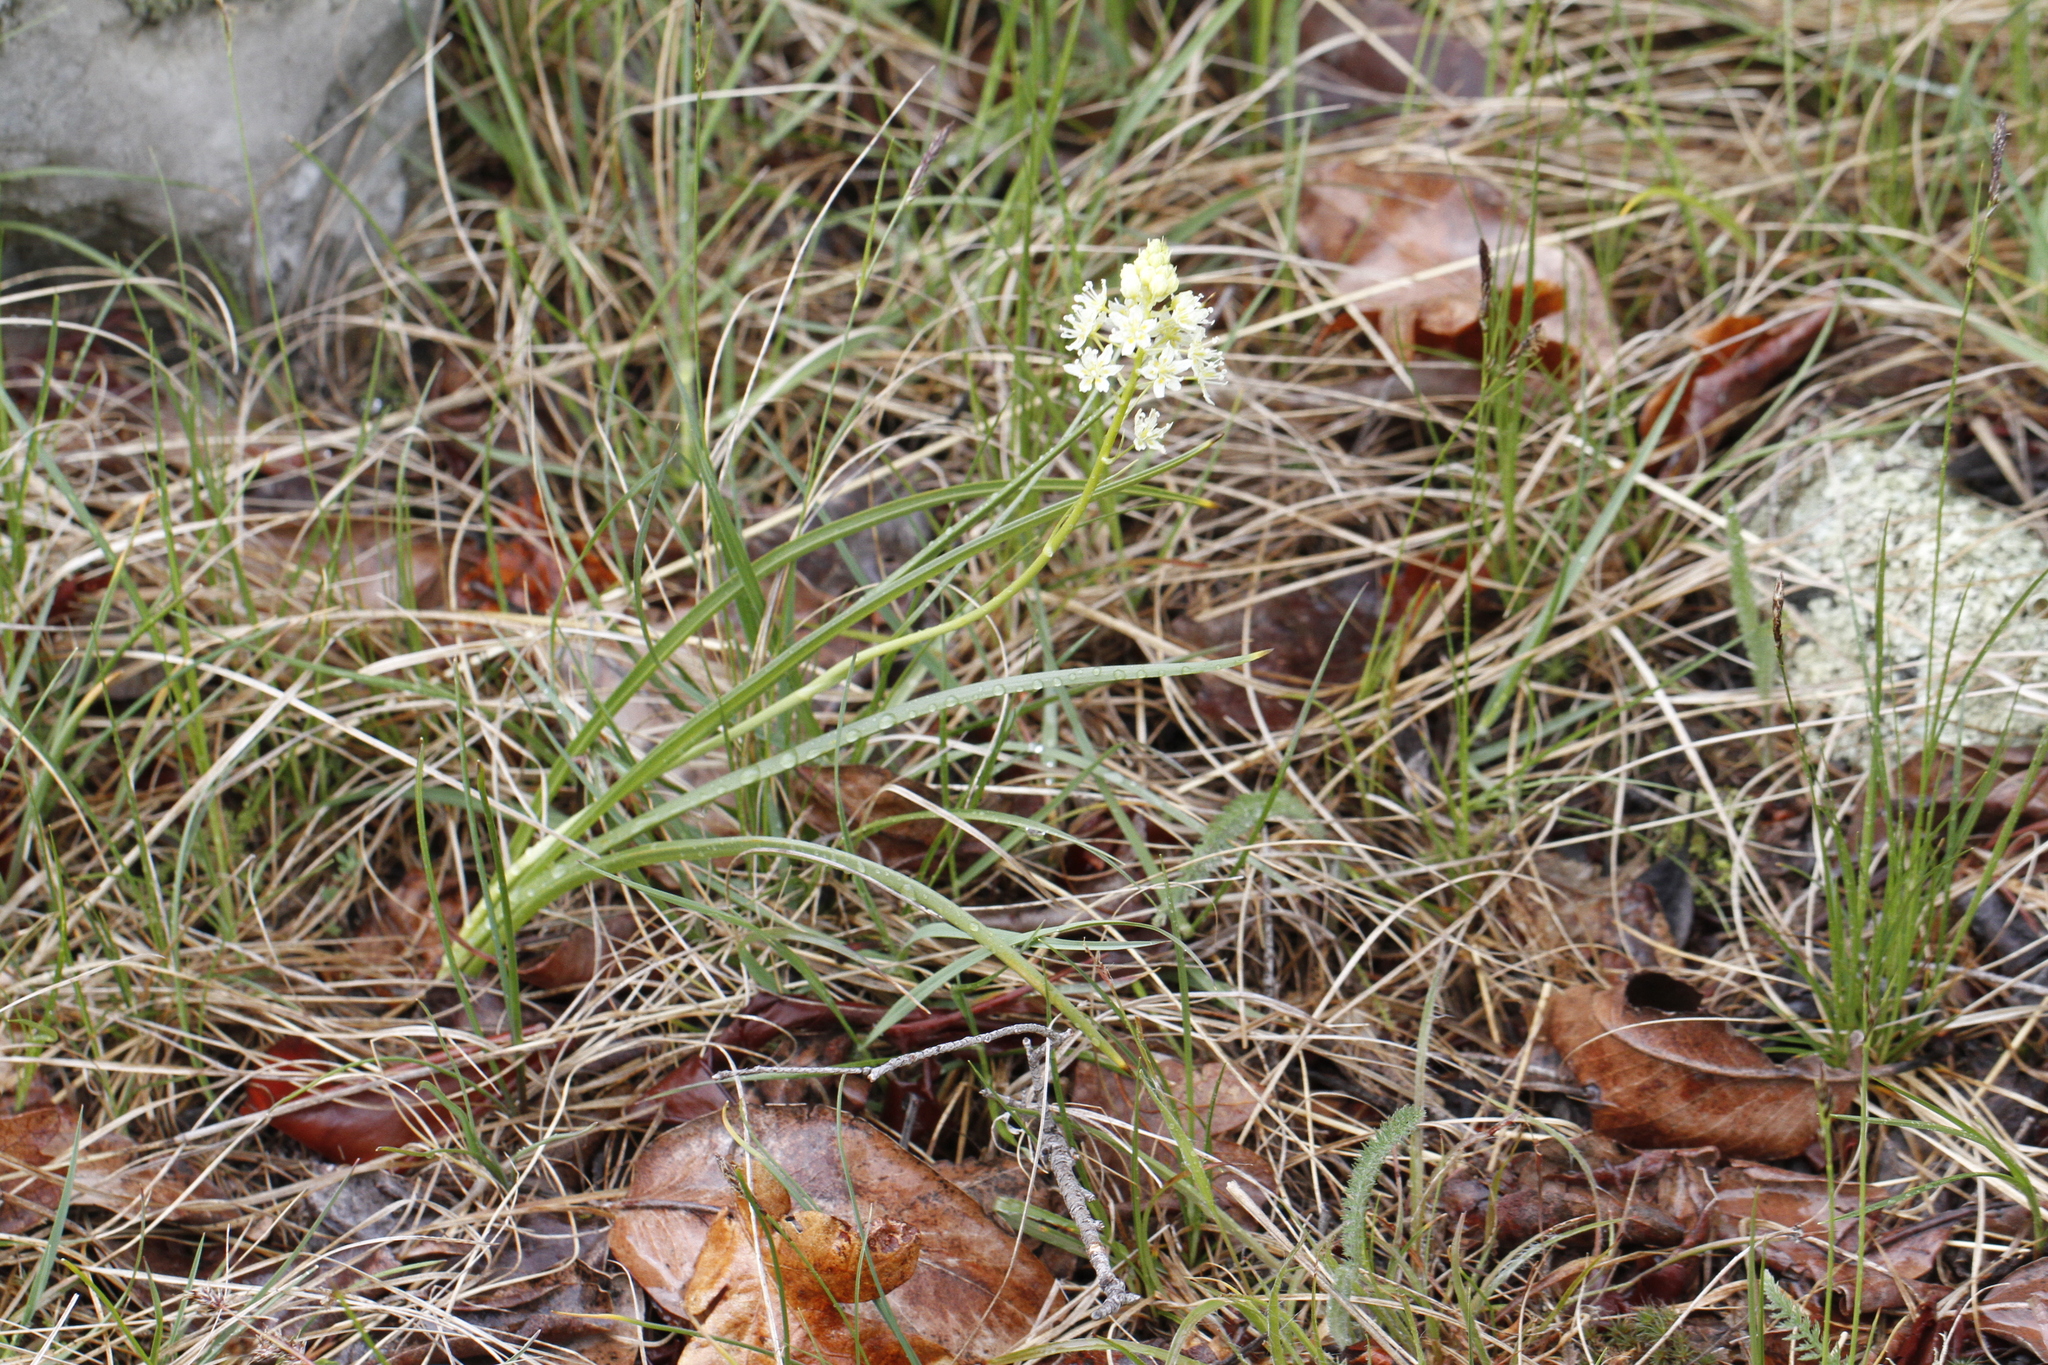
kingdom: Plantae
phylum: Tracheophyta
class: Liliopsida
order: Liliales
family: Melanthiaceae
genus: Toxicoscordion
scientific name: Toxicoscordion venenosum
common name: Meadow death camas
